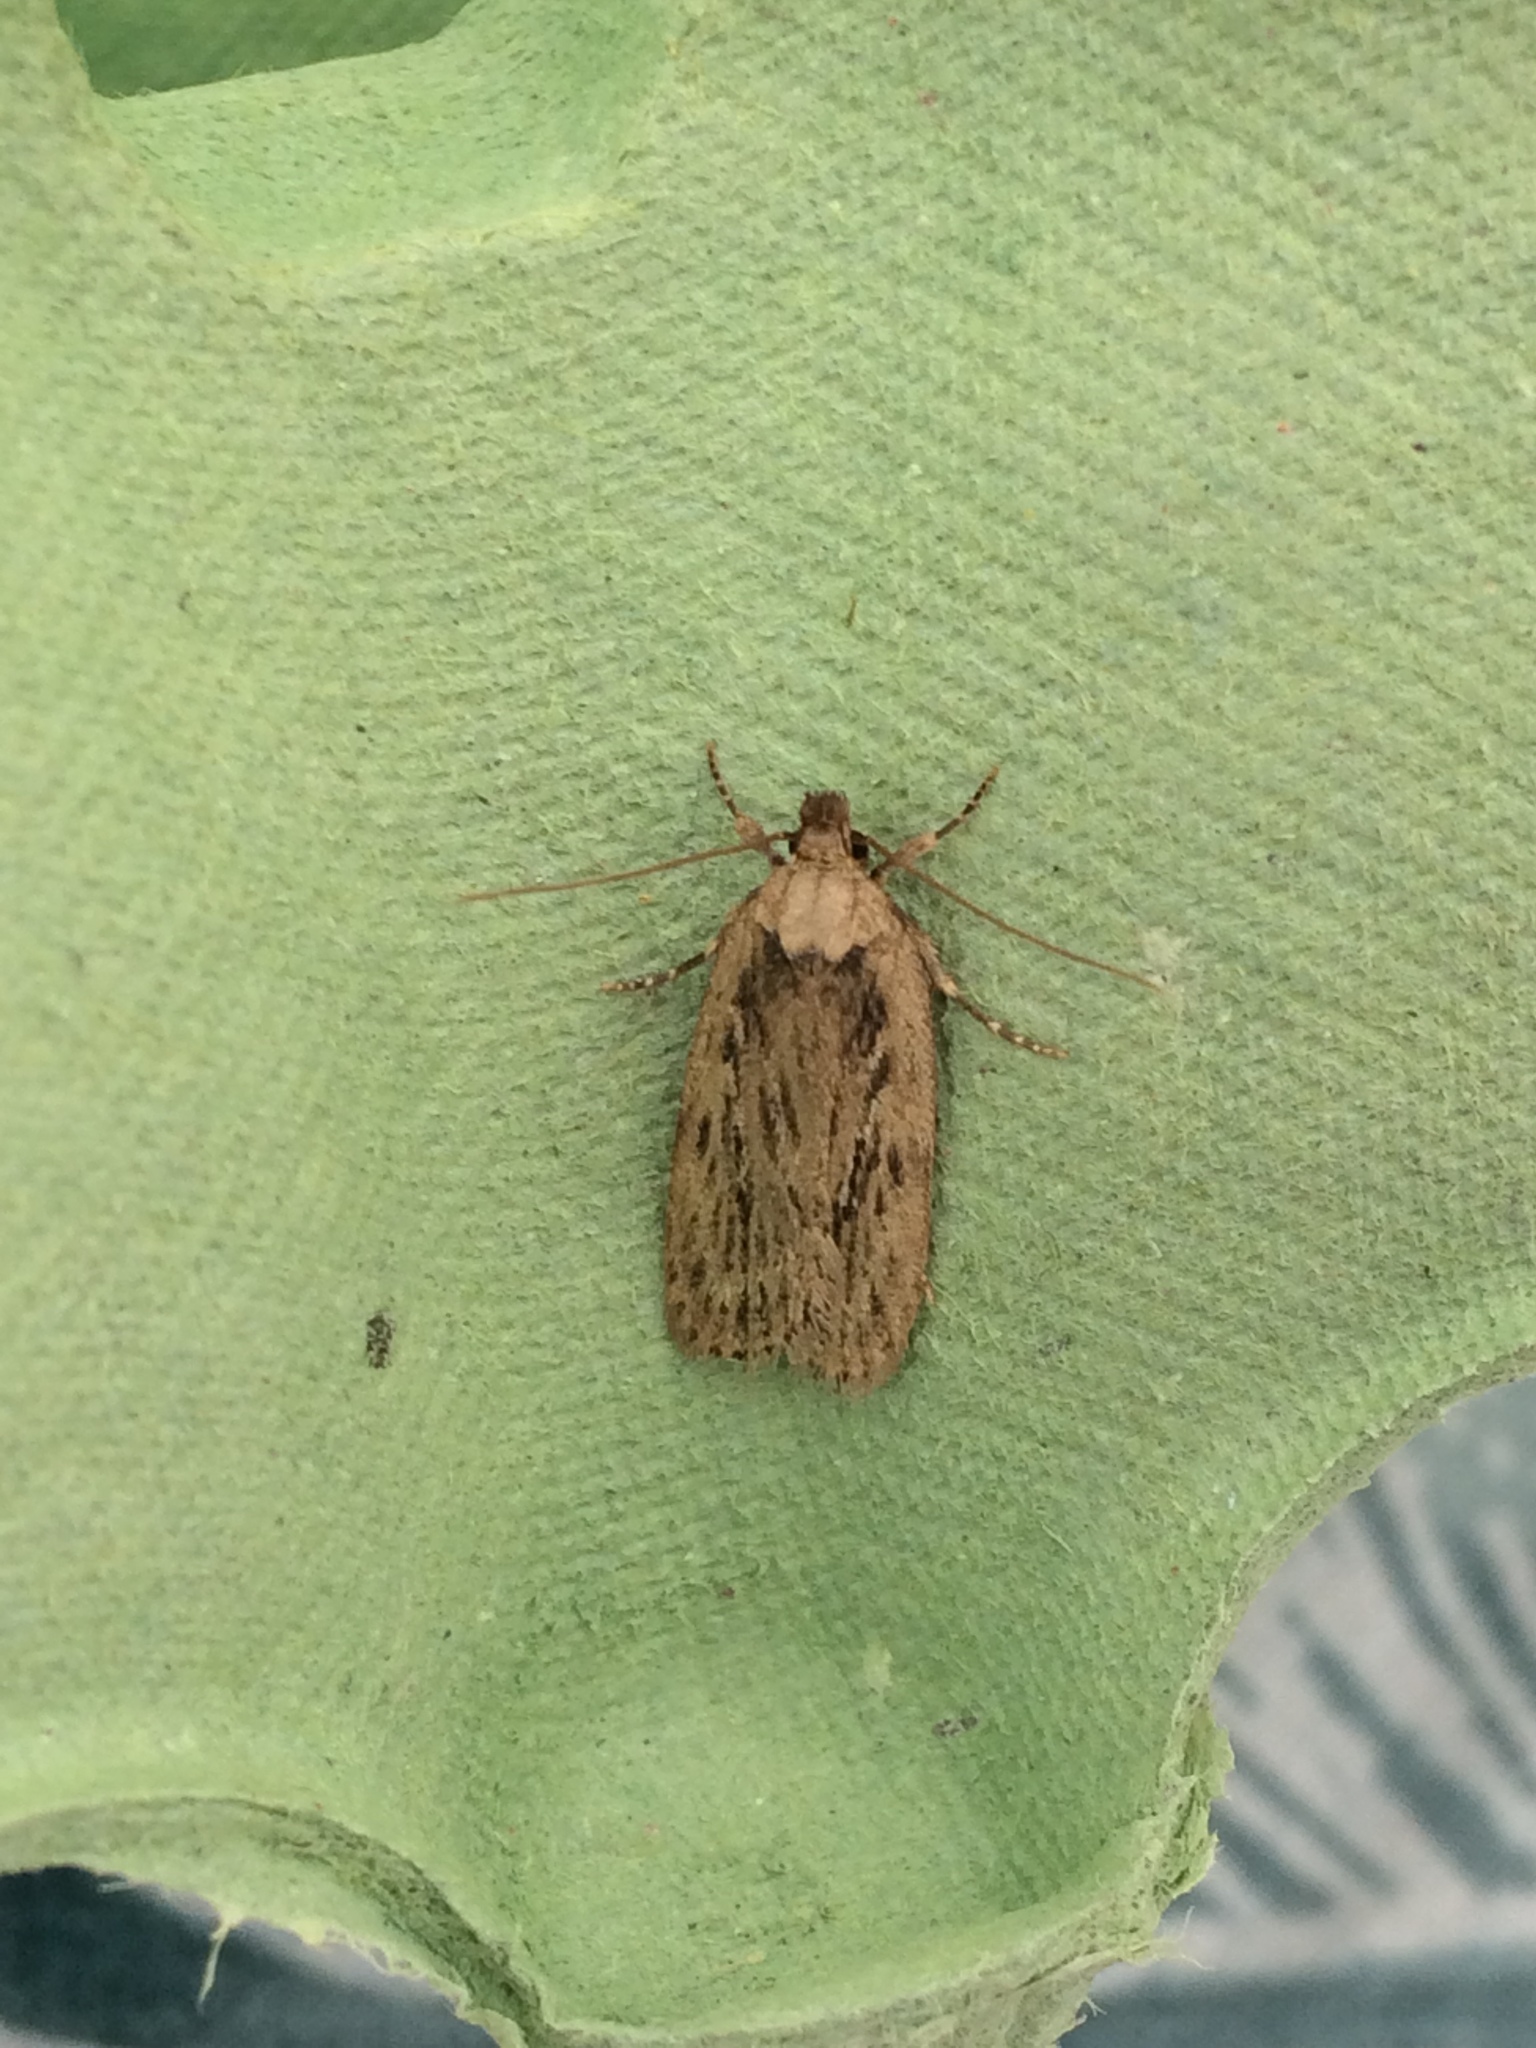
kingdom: Animalia
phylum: Arthropoda
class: Insecta
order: Lepidoptera
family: Depressariidae
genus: Depressaria
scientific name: Depressaria radiella
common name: Parsnip moth
